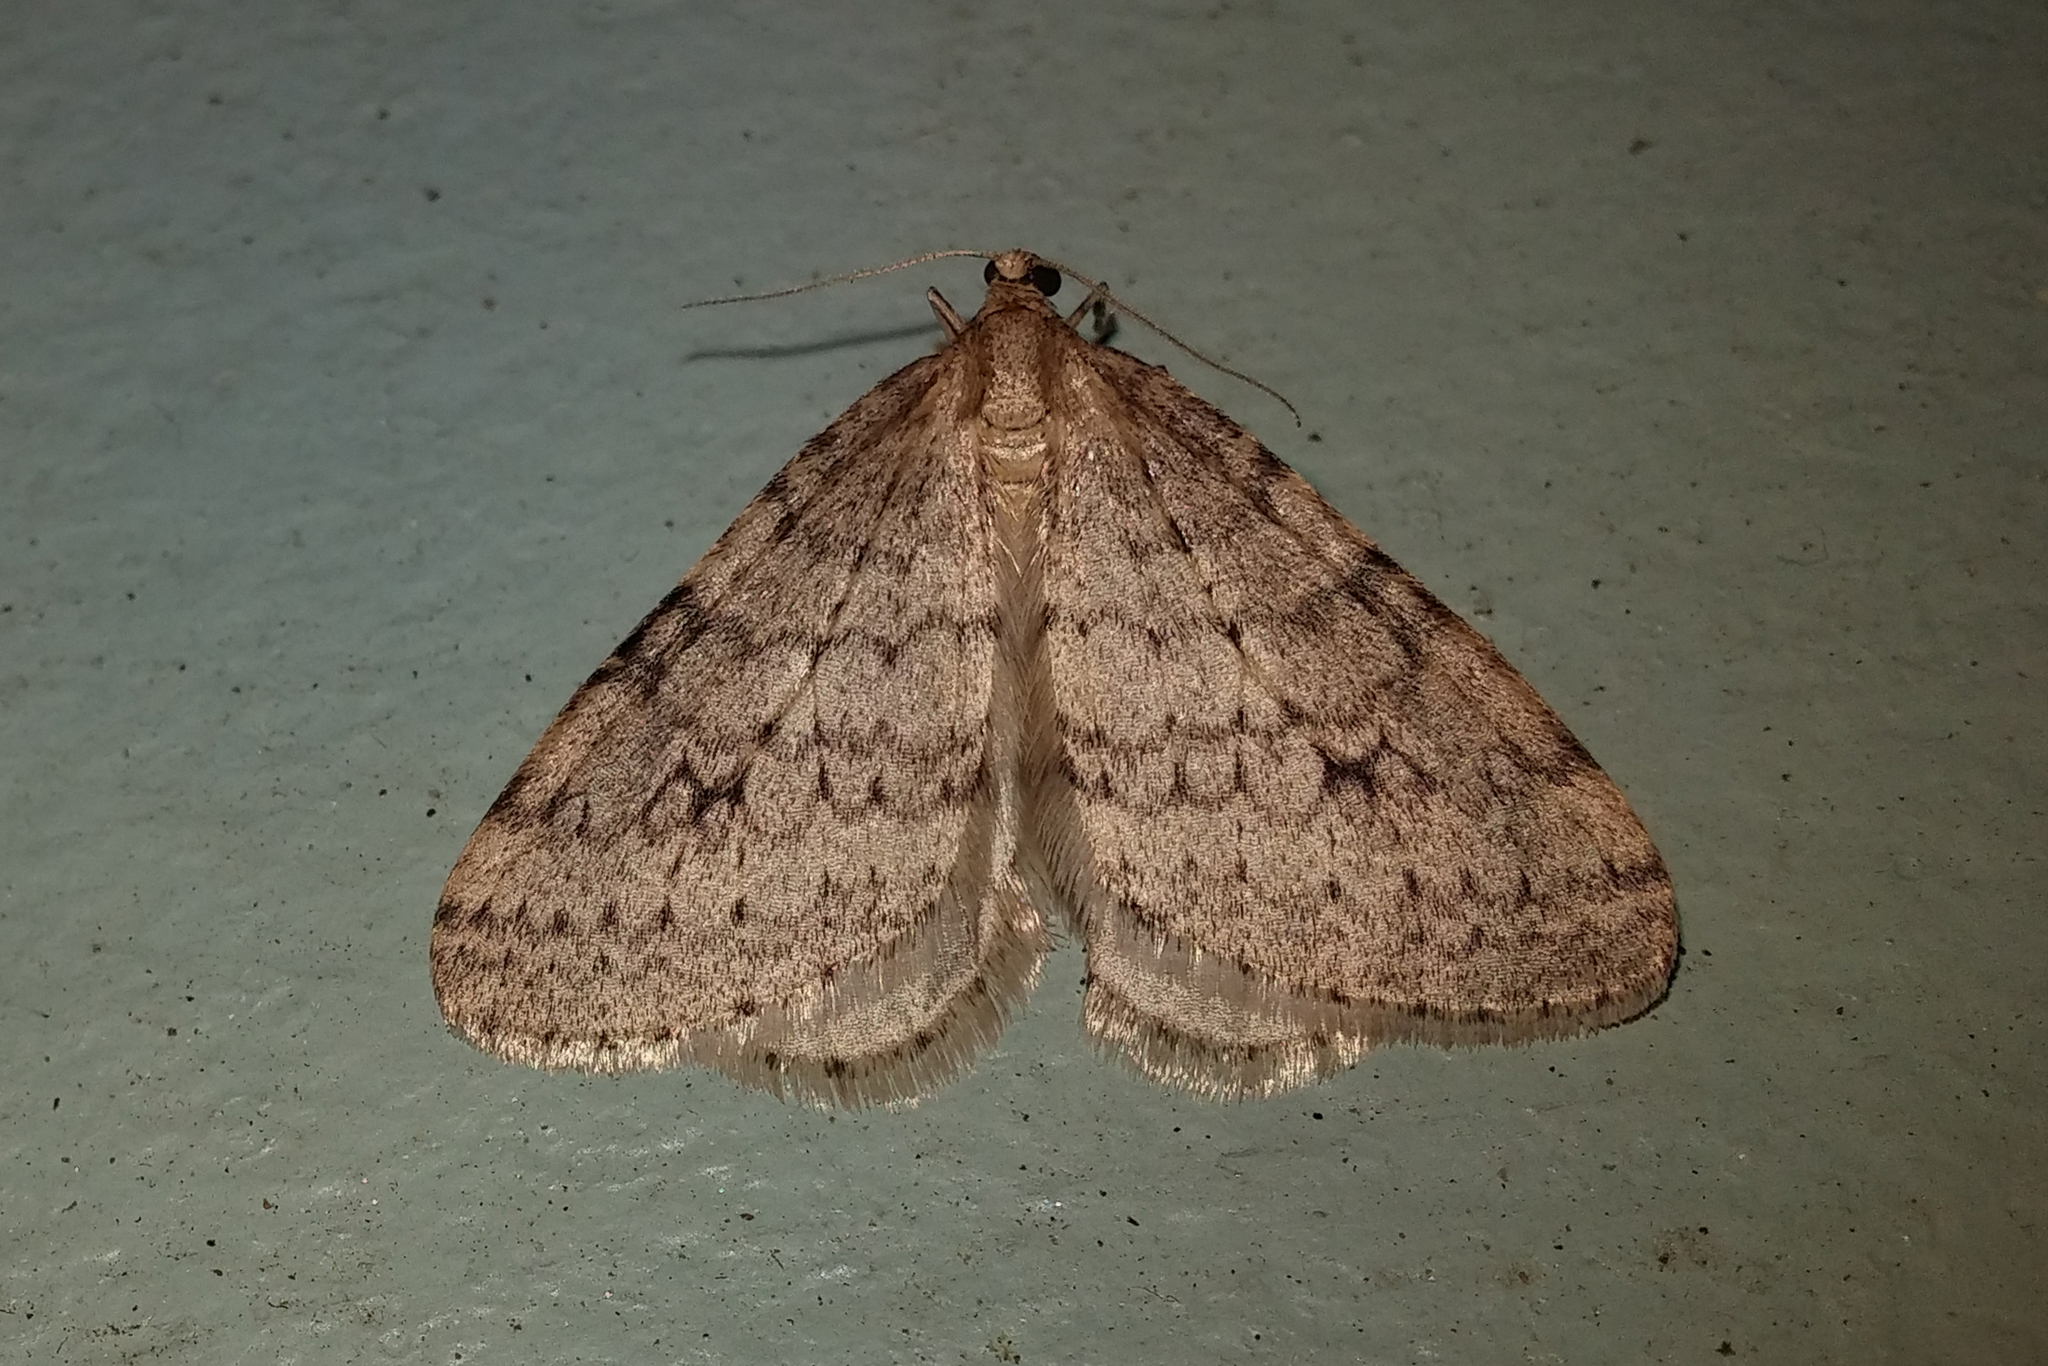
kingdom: Animalia
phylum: Arthropoda
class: Insecta
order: Lepidoptera
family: Geometridae
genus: Operophtera
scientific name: Operophtera bruceata
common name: Bruce spanworm
